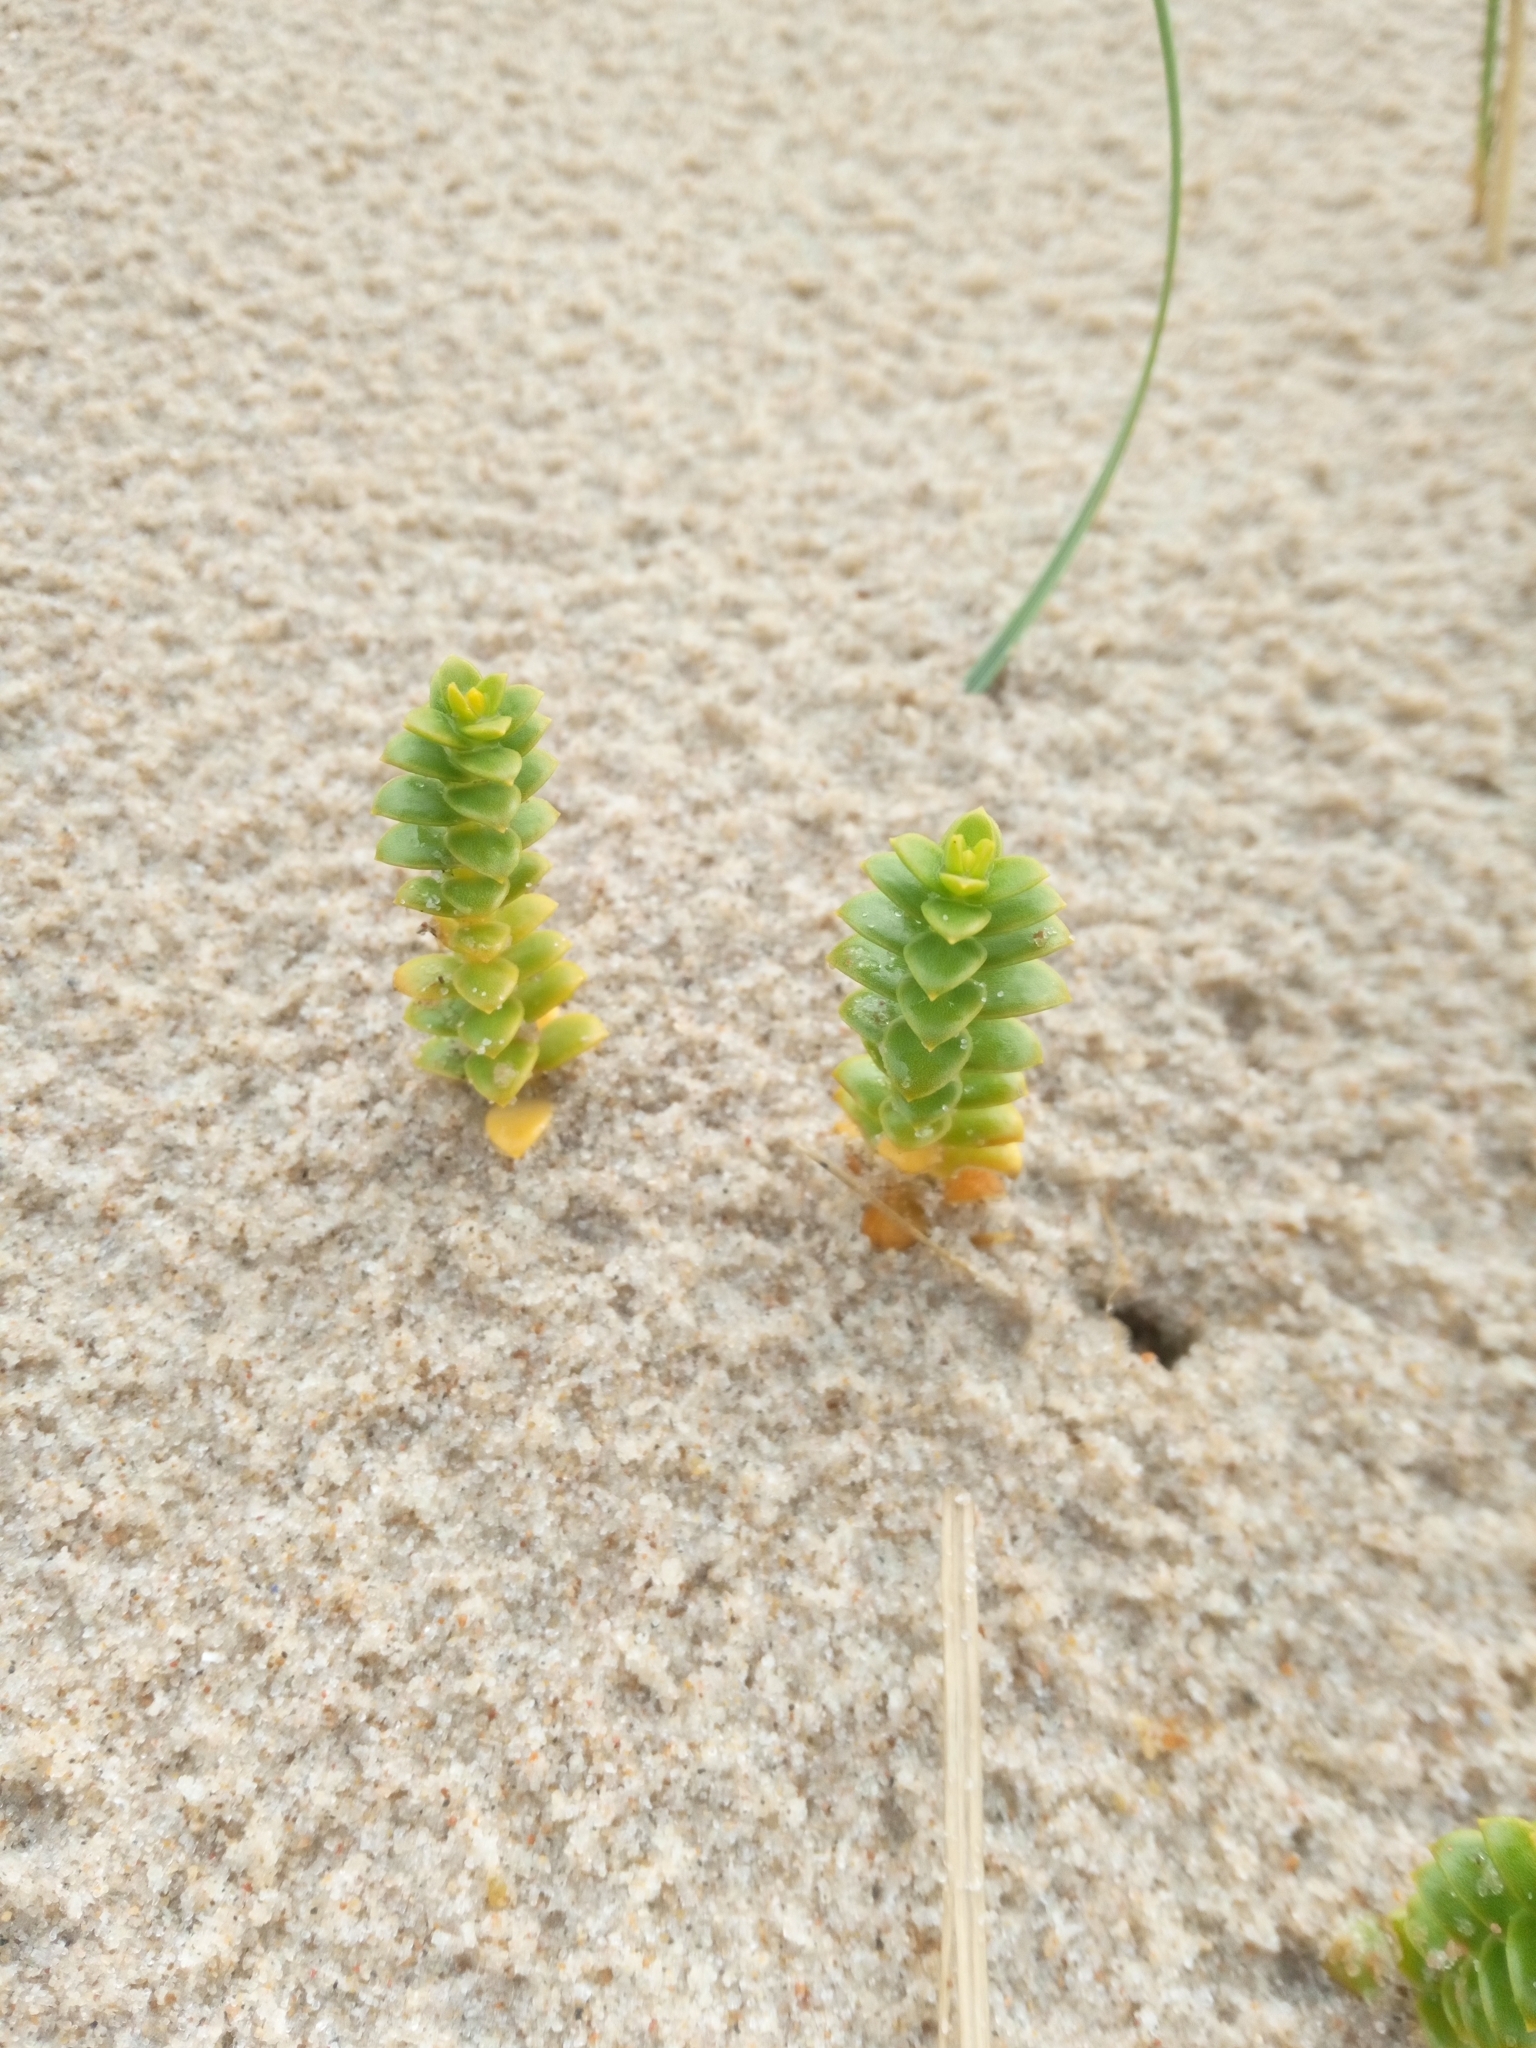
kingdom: Plantae
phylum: Tracheophyta
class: Magnoliopsida
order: Caryophyllales
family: Caryophyllaceae
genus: Honckenya
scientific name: Honckenya peploides
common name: Sea sandwort
